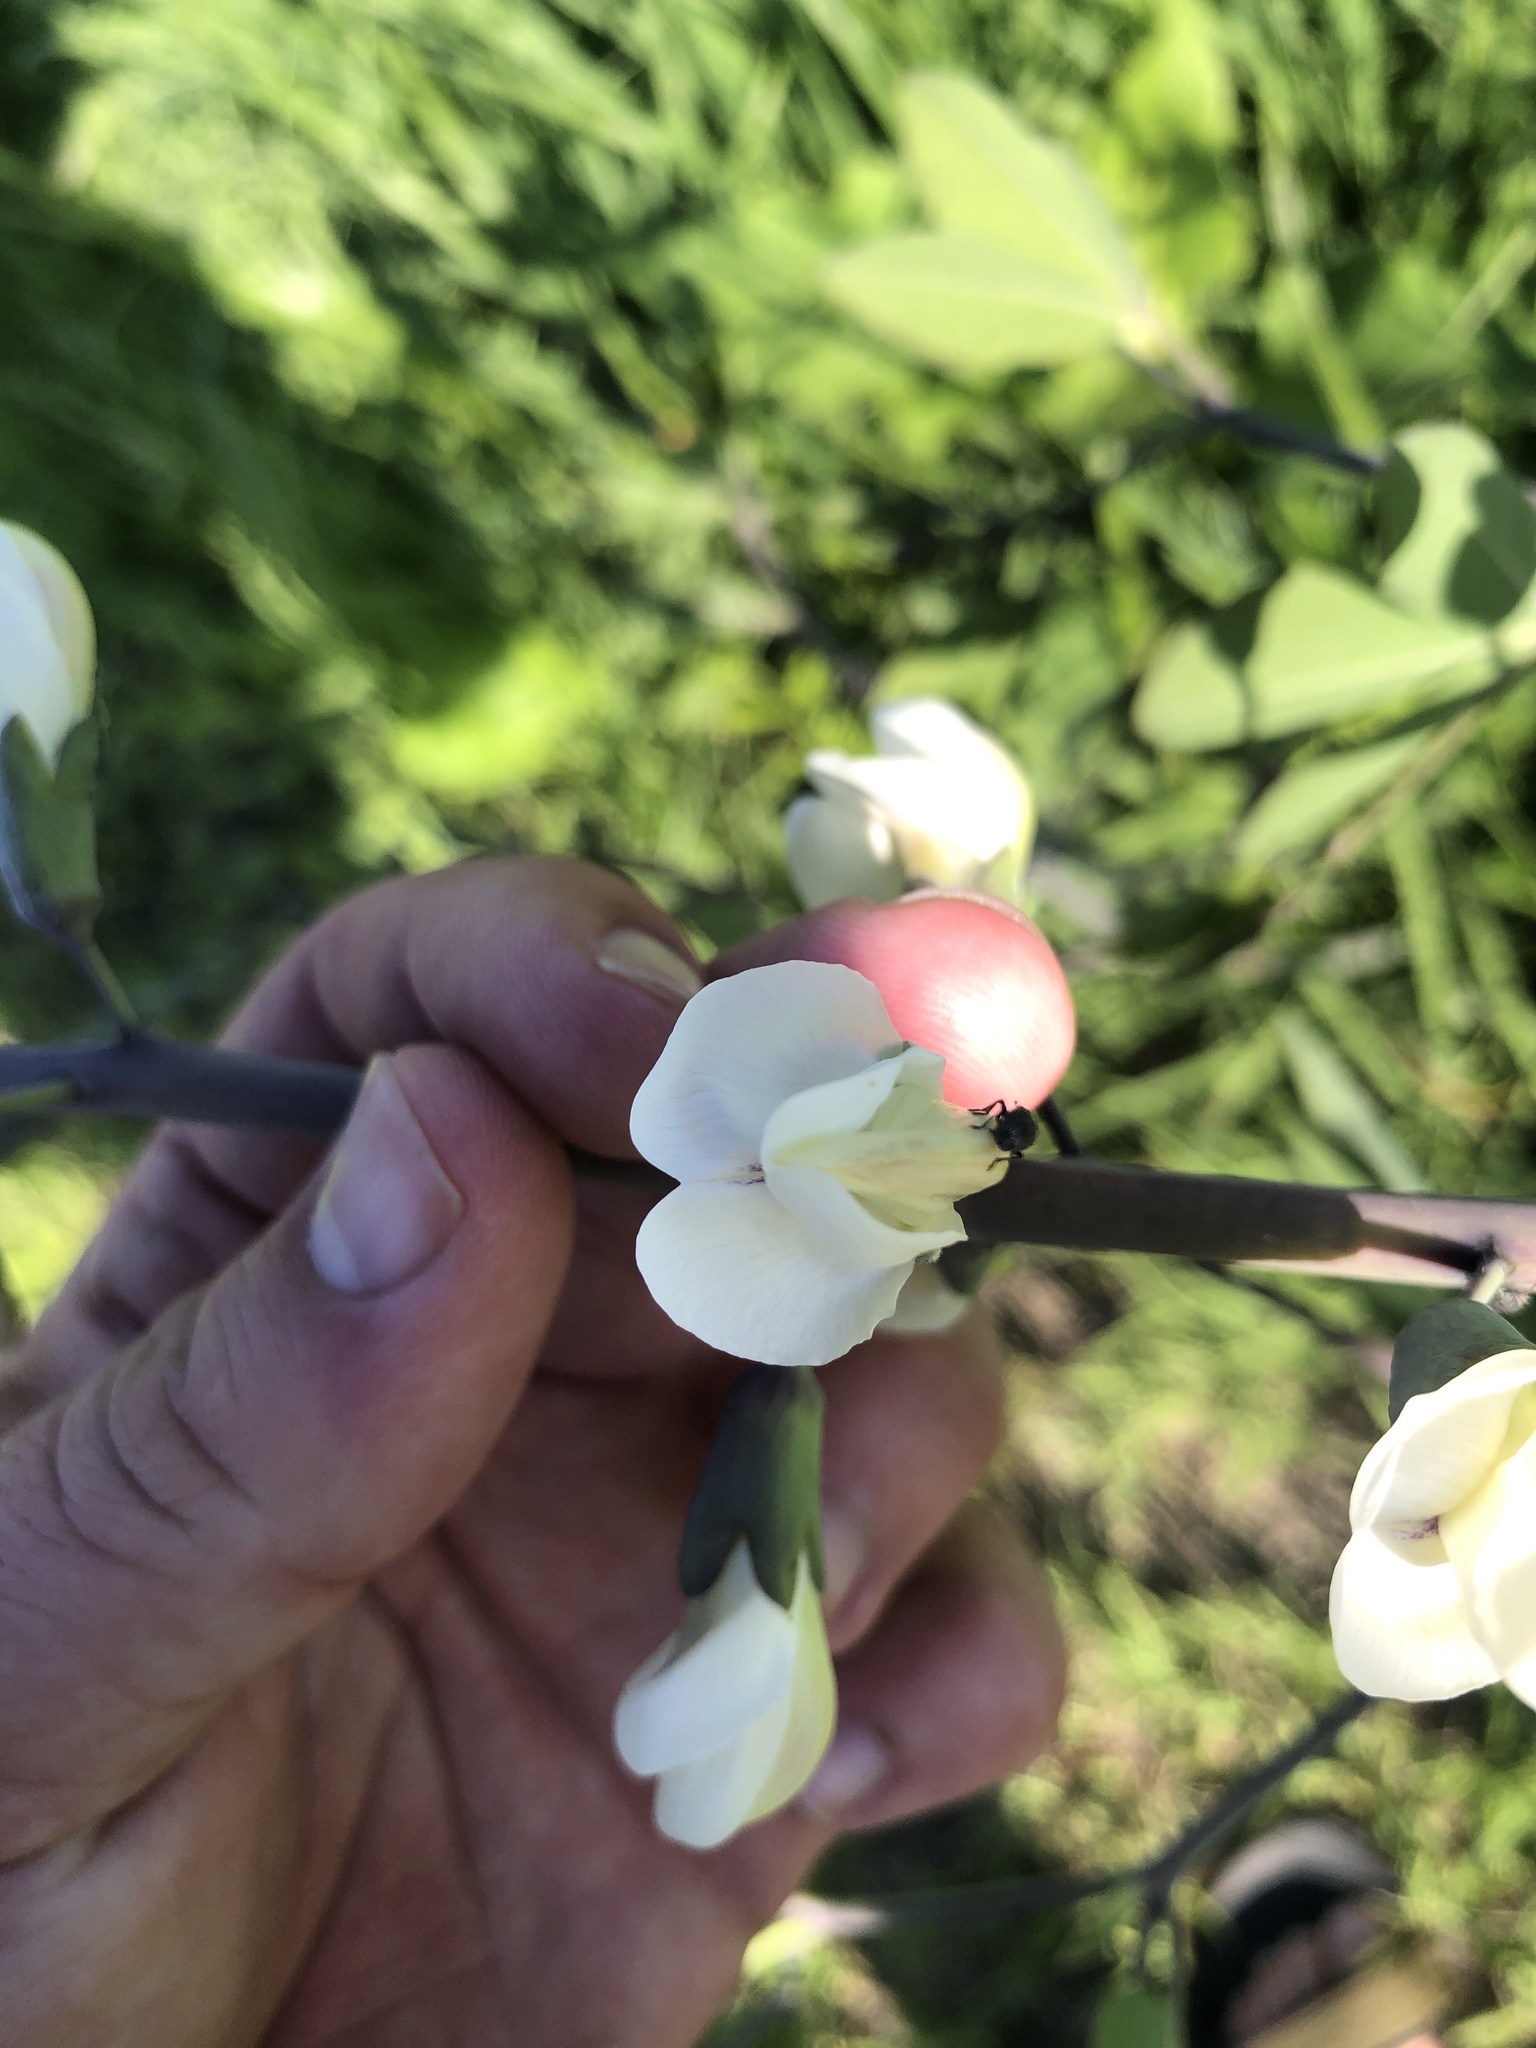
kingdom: Plantae
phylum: Tracheophyta
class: Magnoliopsida
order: Fabales
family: Fabaceae
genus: Baptisia
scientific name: Baptisia alba
